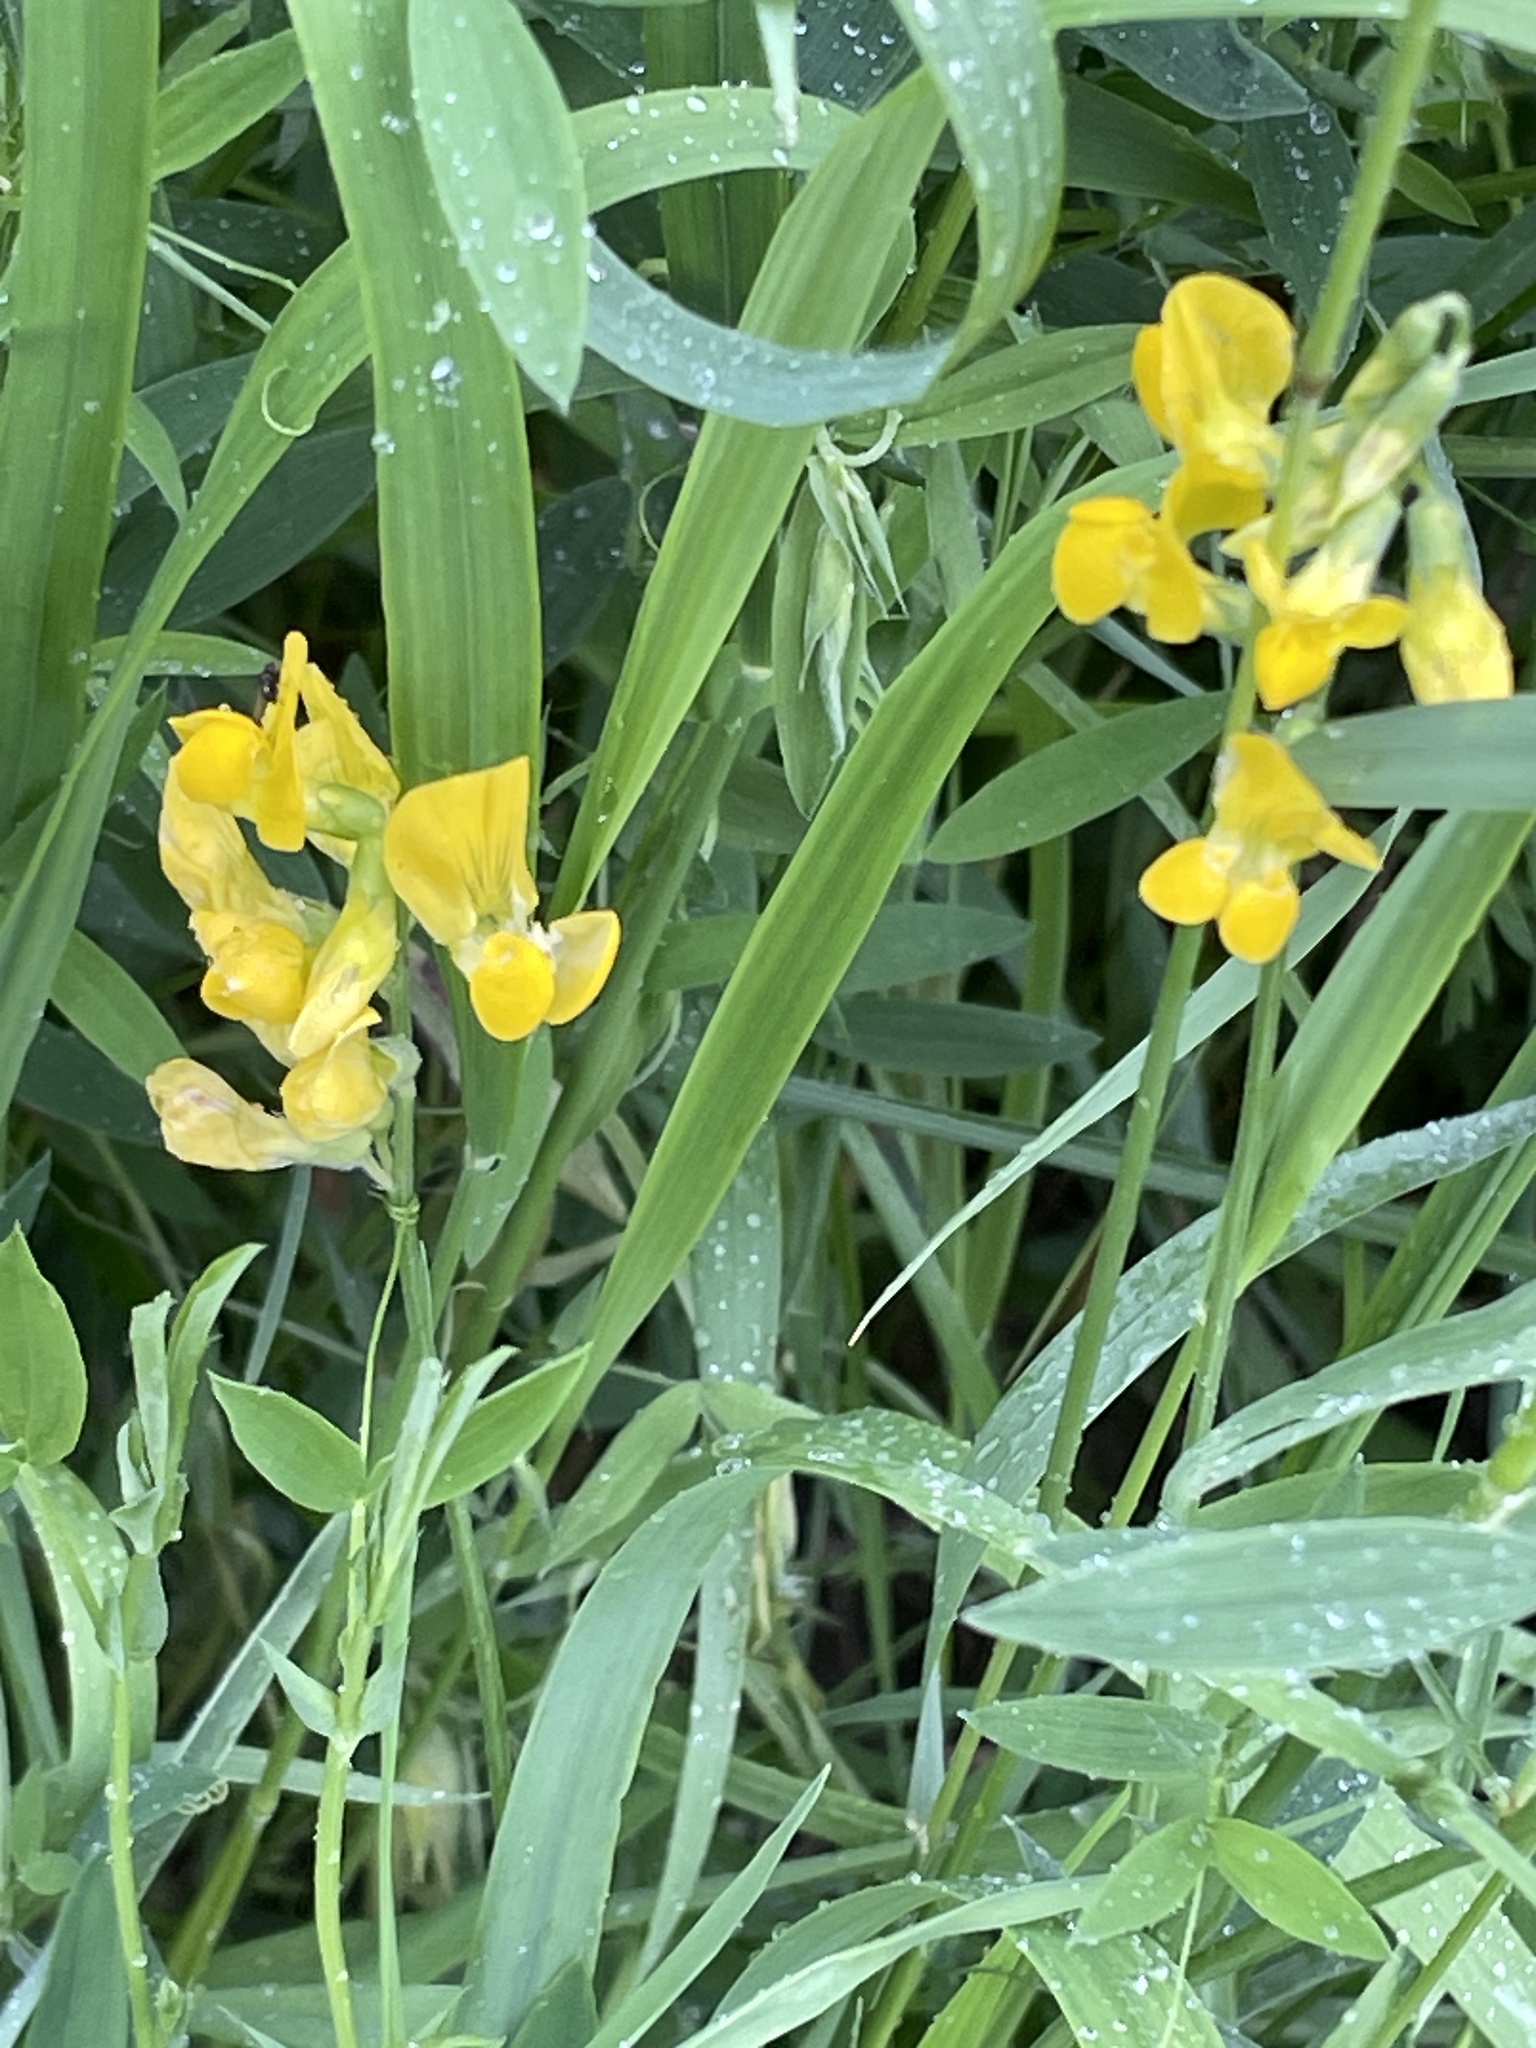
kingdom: Plantae
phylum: Tracheophyta
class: Magnoliopsida
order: Fabales
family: Fabaceae
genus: Lathyrus
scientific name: Lathyrus pratensis
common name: Meadow vetchling
